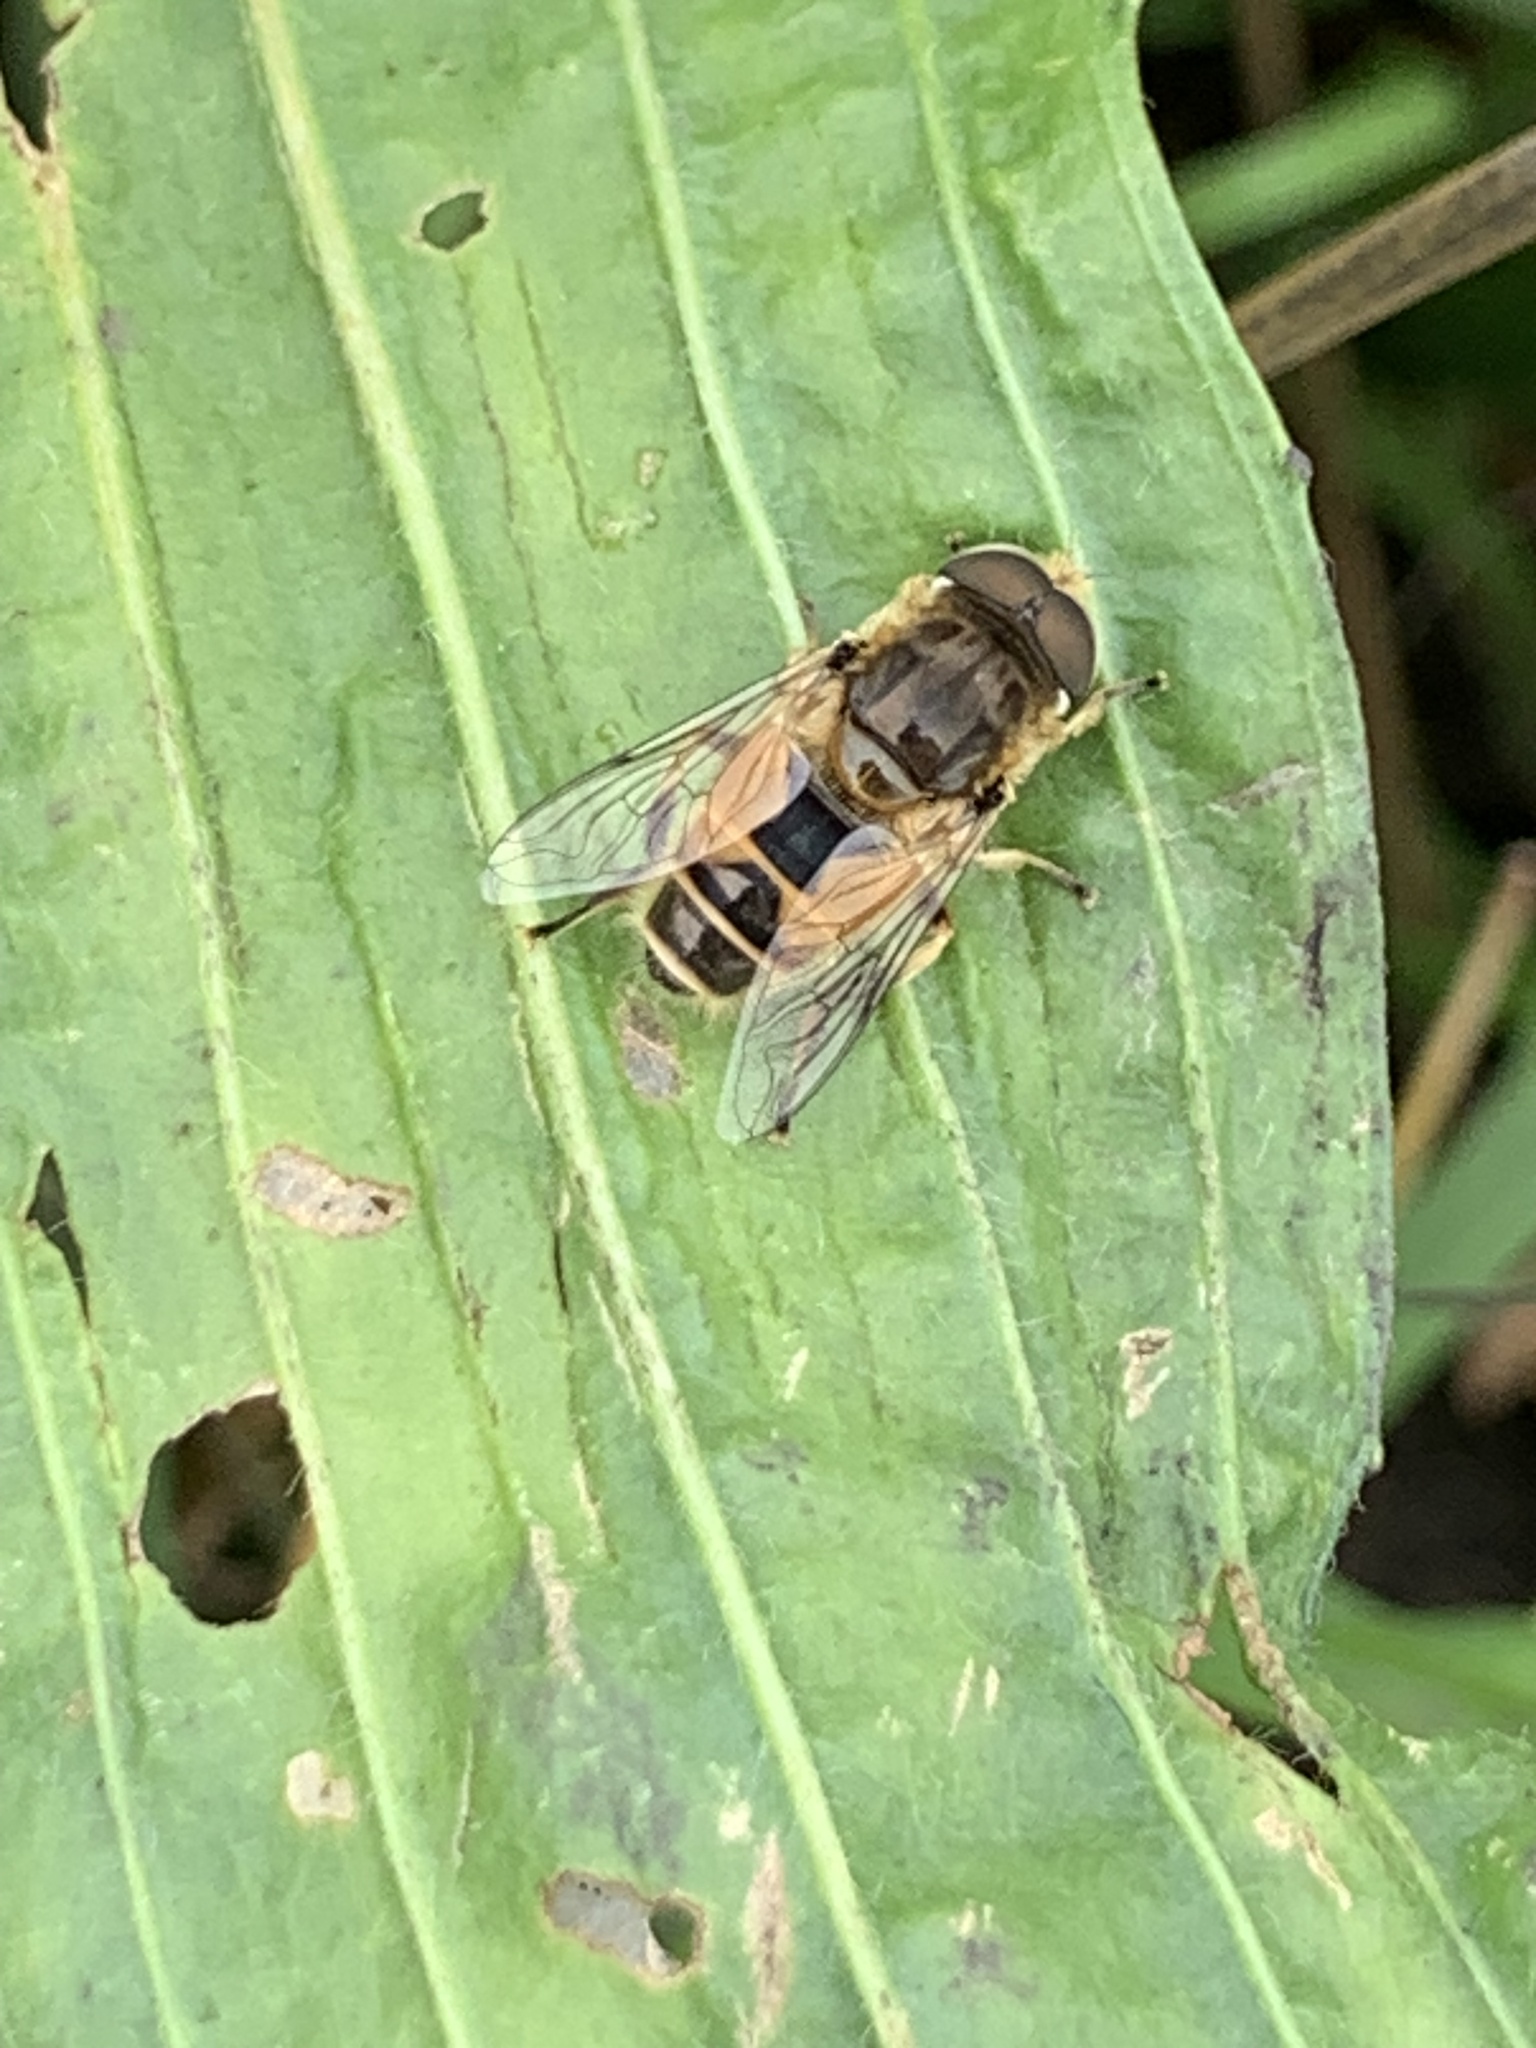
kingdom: Animalia
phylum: Arthropoda
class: Insecta
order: Diptera
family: Syrphidae
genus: Eristalis
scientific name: Eristalis arbustorum
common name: Hover fly
